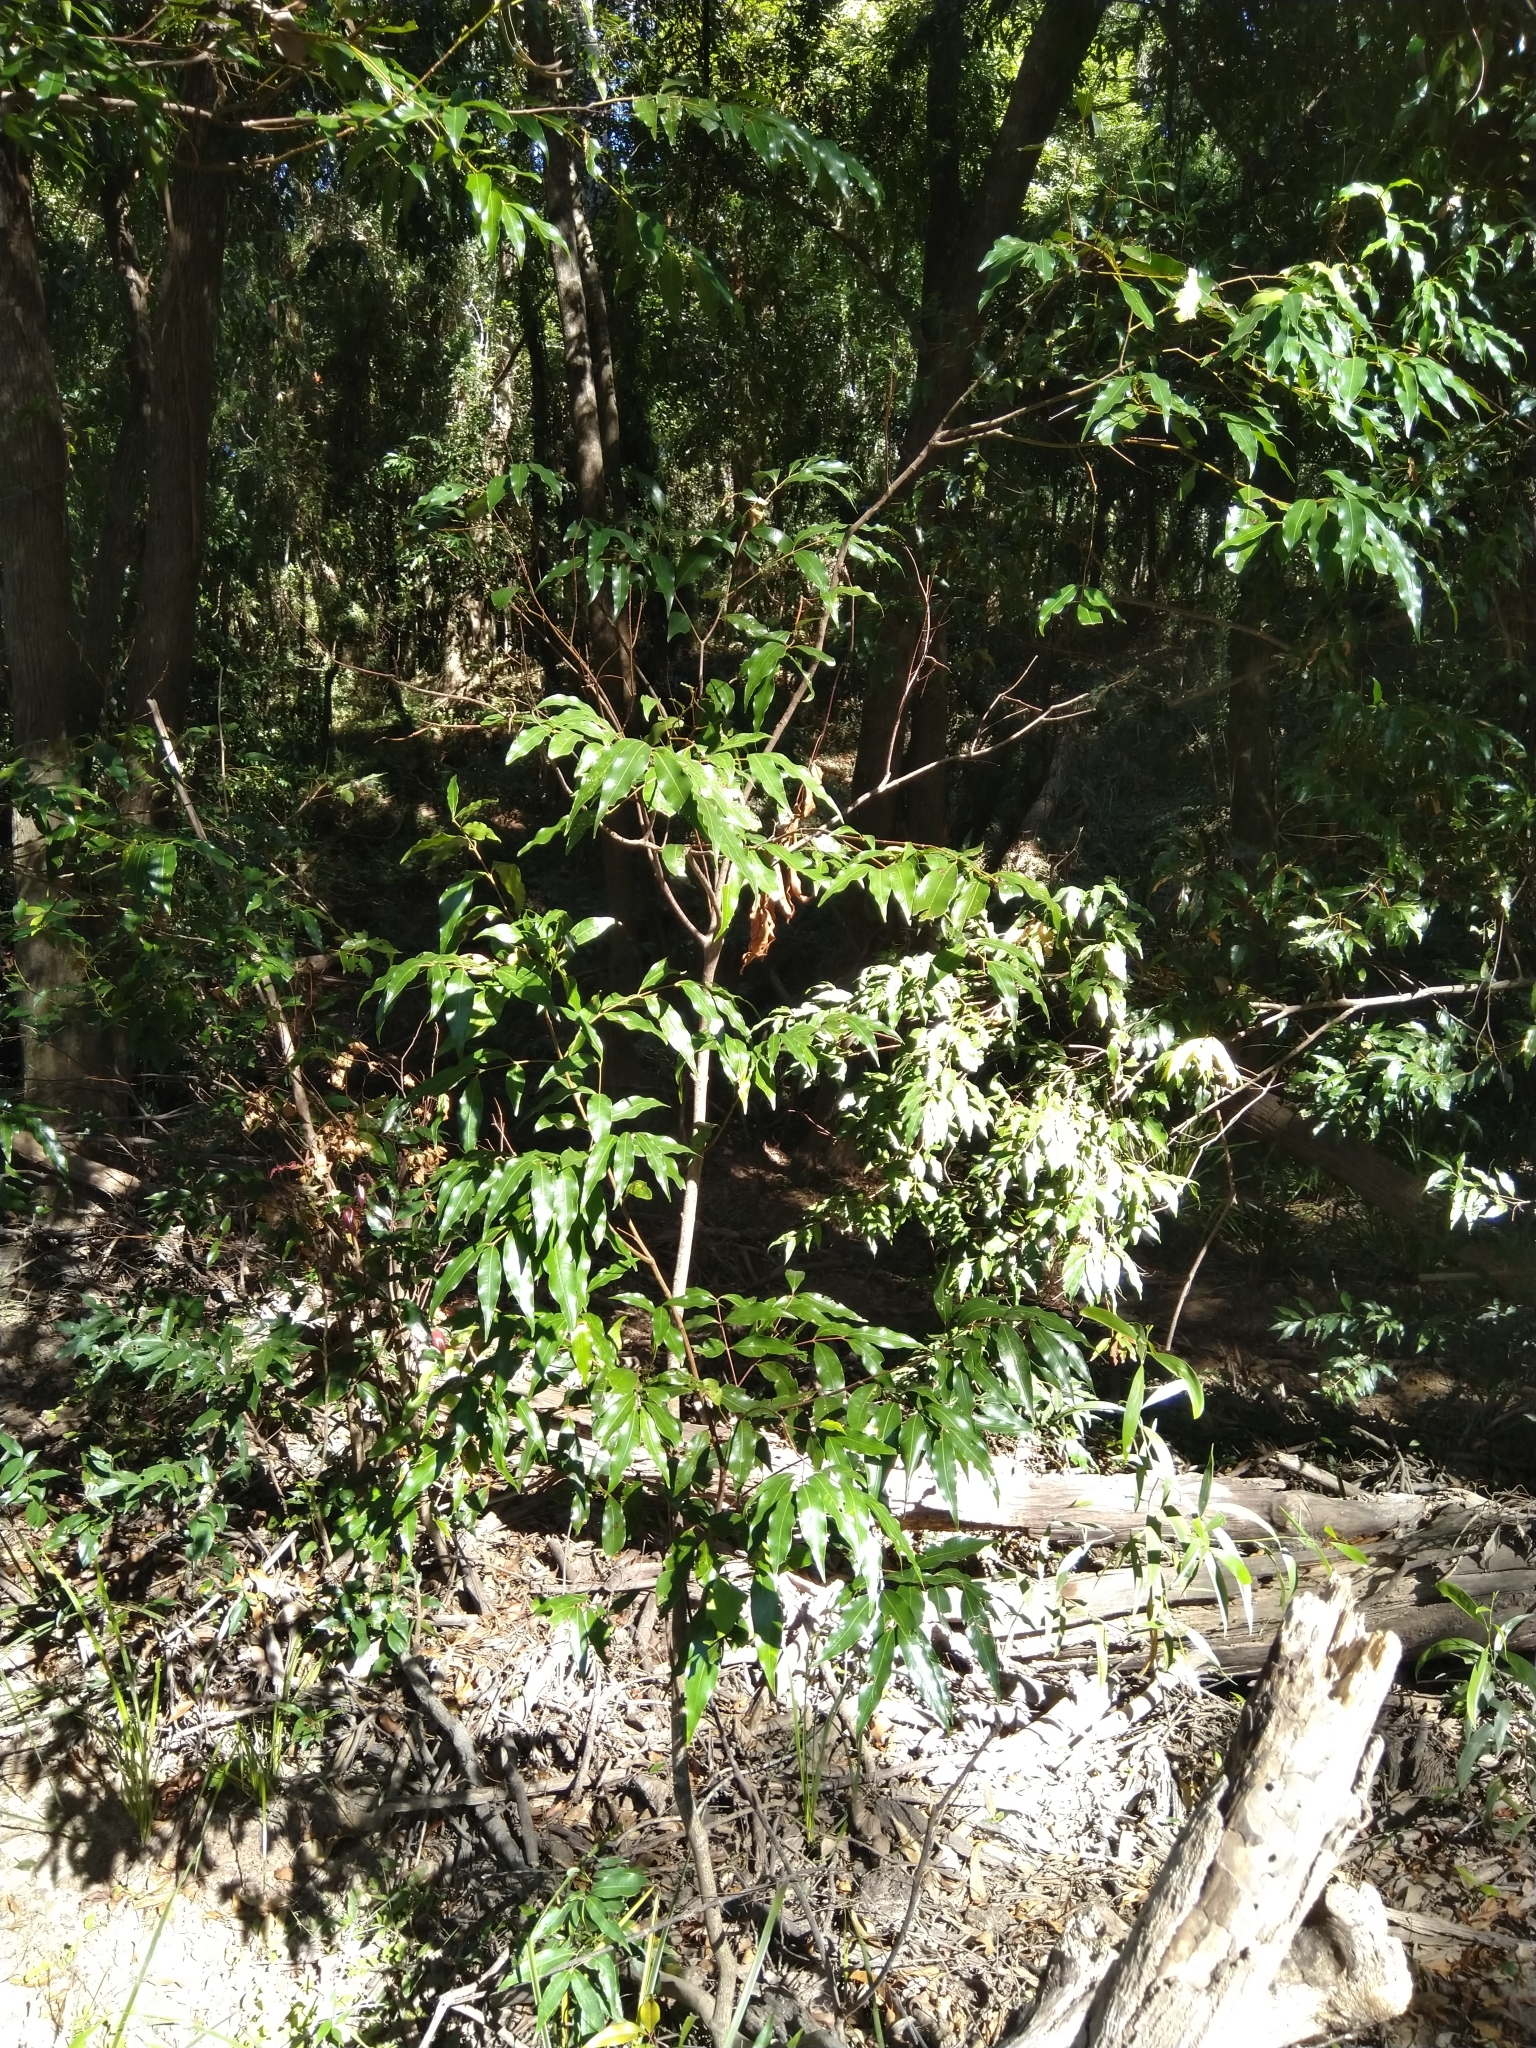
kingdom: Plantae
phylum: Tracheophyta
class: Magnoliopsida
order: Myrtales
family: Myrtaceae
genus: Syzygium
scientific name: Syzygium floribundum
